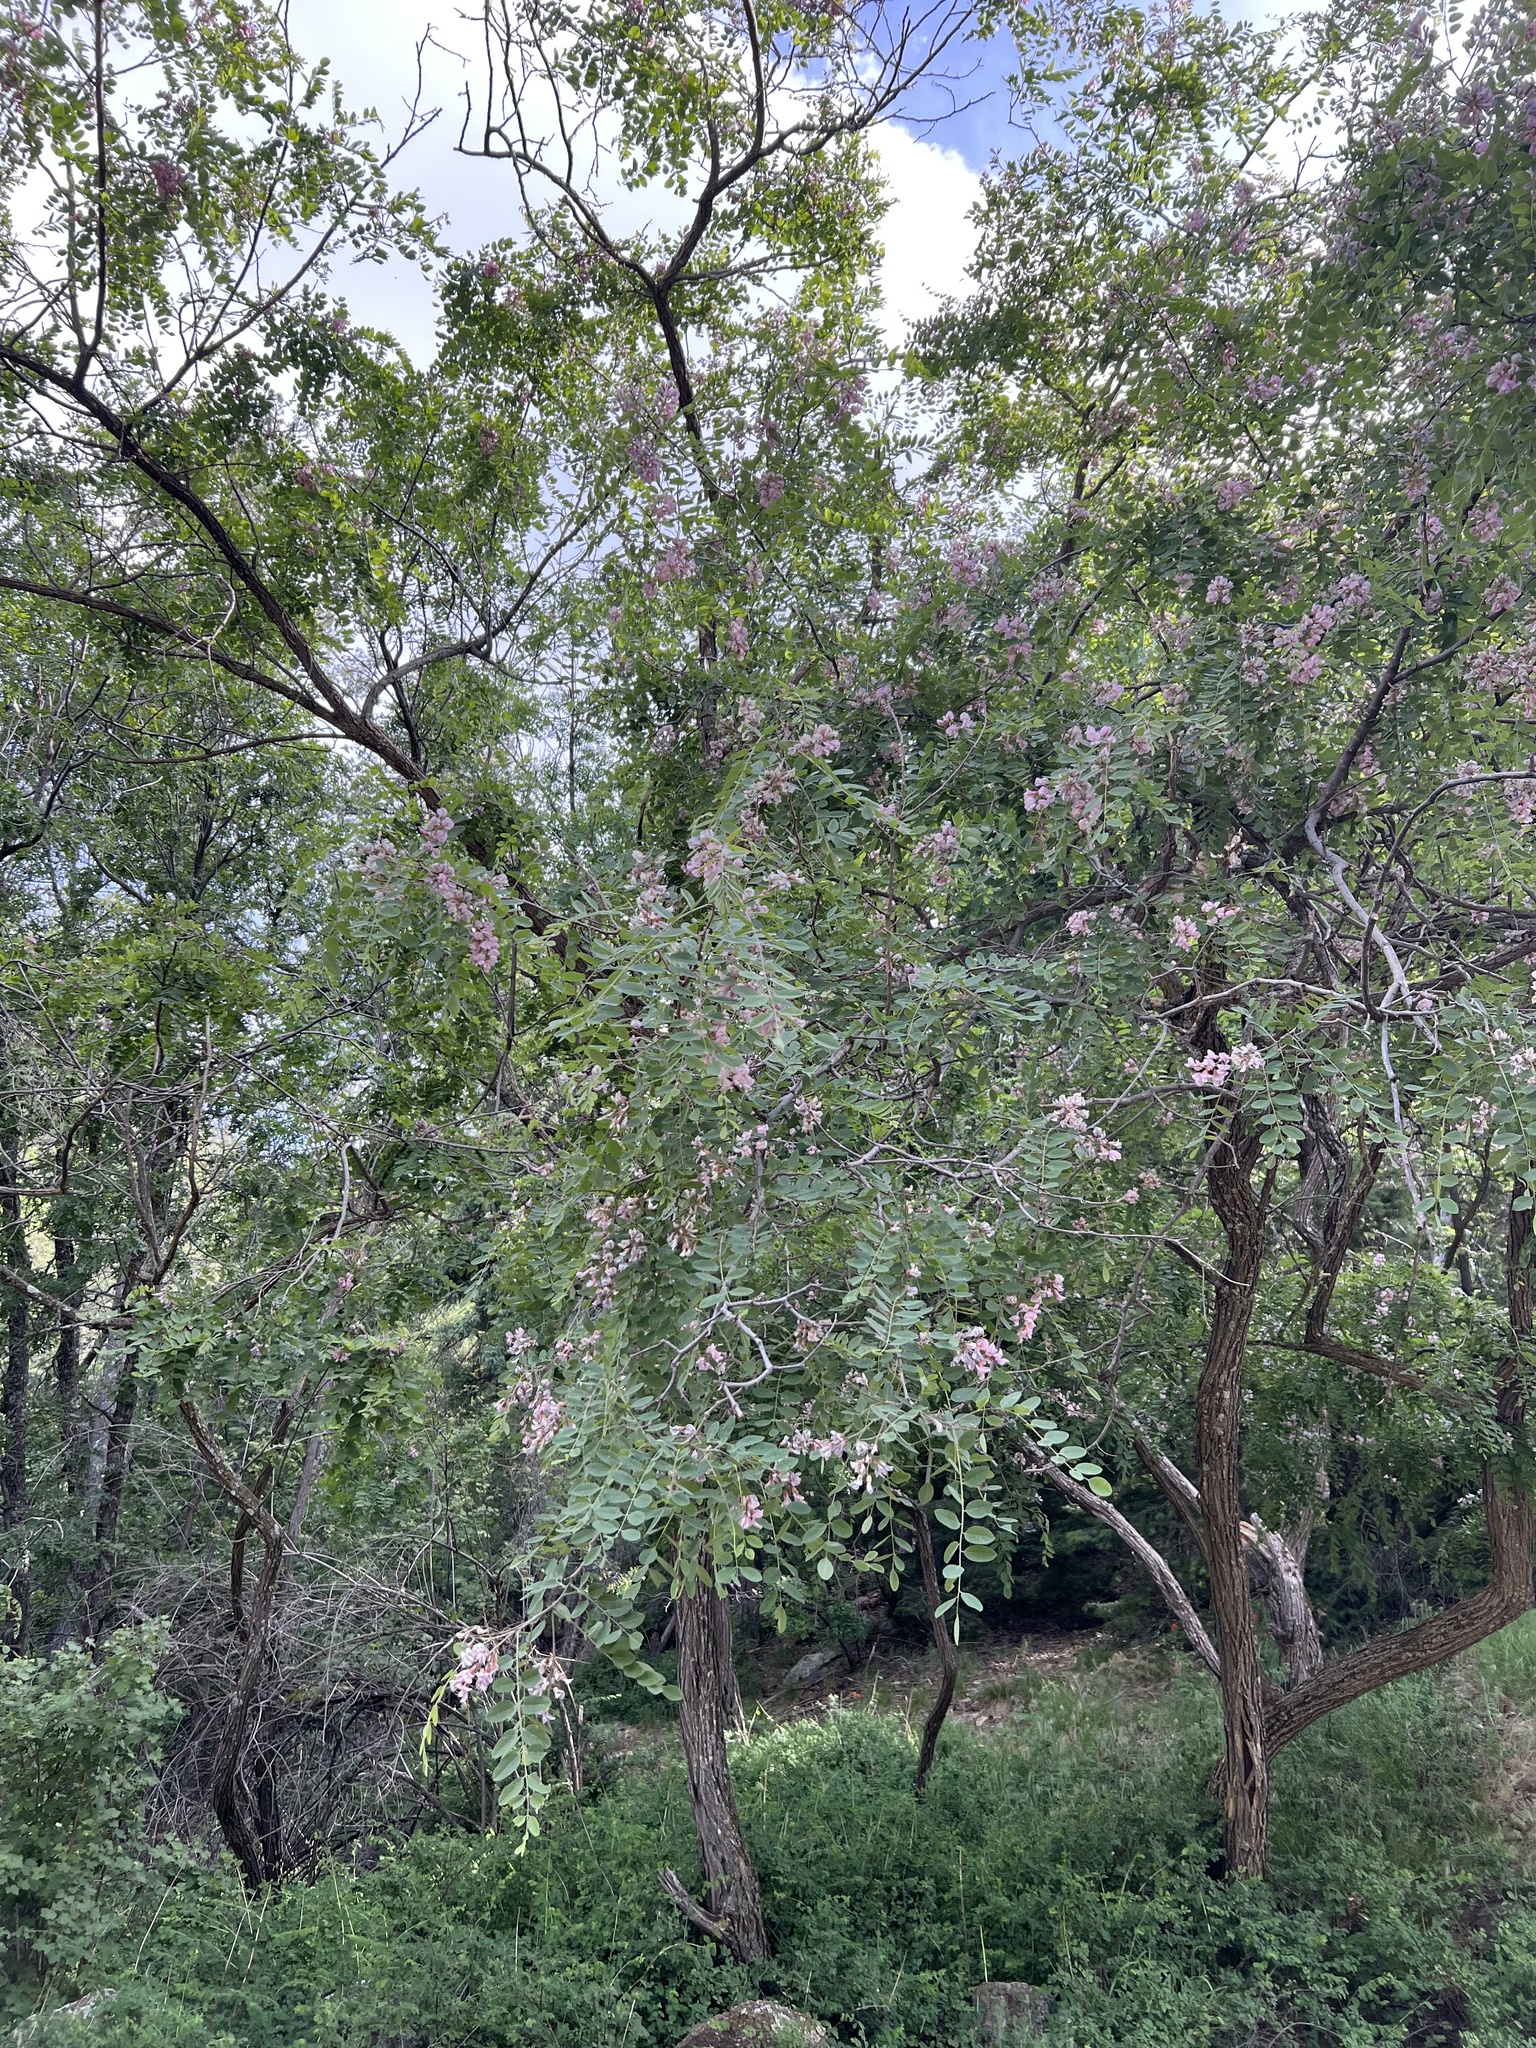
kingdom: Plantae
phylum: Tracheophyta
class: Magnoliopsida
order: Fabales
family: Fabaceae
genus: Robinia
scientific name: Robinia neomexicana
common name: New mexico locust
